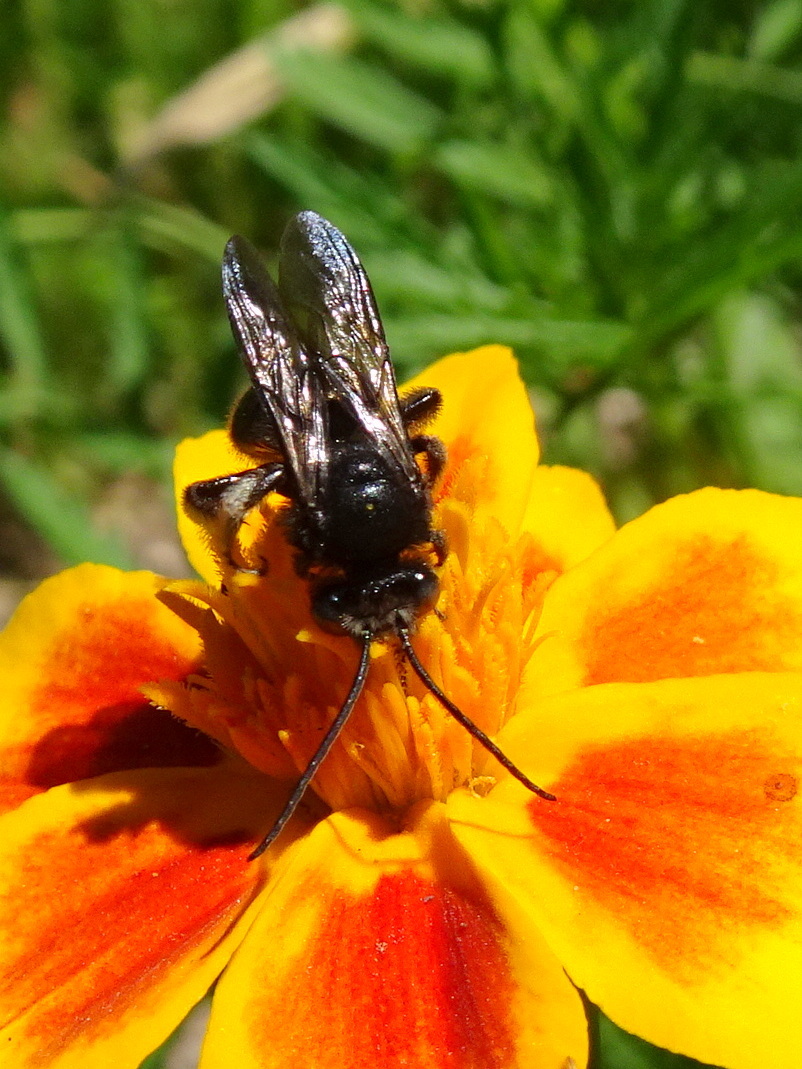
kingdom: Animalia
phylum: Arthropoda
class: Insecta
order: Hymenoptera
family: Apidae
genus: Melissodes
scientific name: Melissodes bimaculatus
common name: Two-spotted long-horned bee
